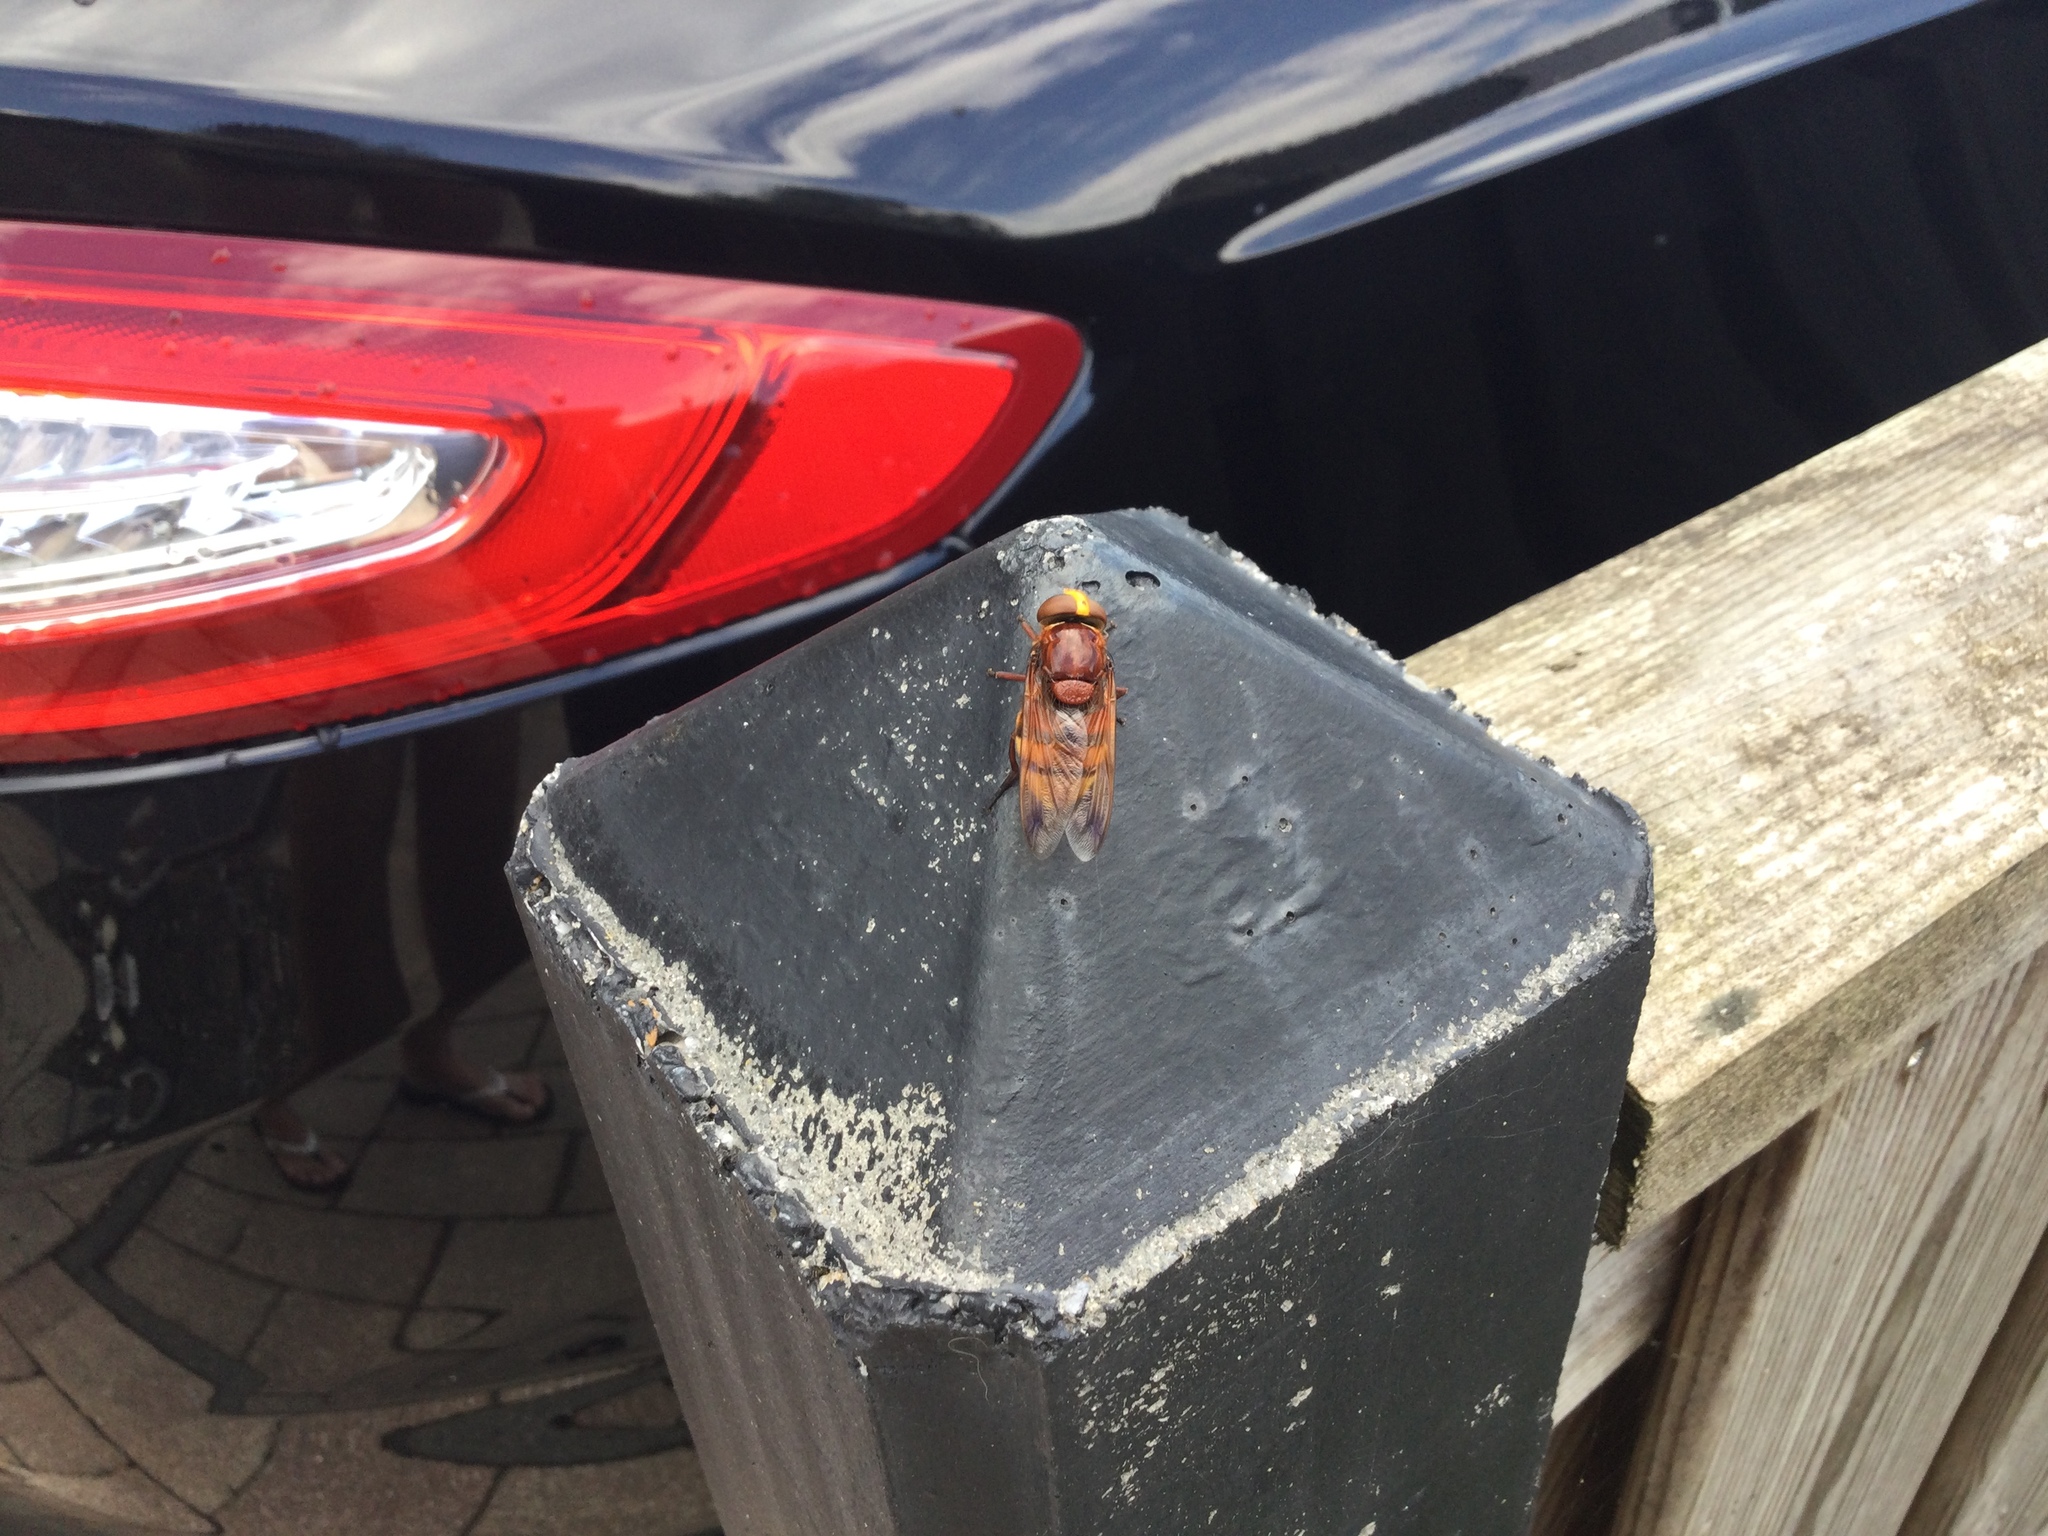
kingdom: Animalia
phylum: Arthropoda
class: Insecta
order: Diptera
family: Syrphidae
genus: Volucella
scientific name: Volucella zonaria
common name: Hornet hoverfly
